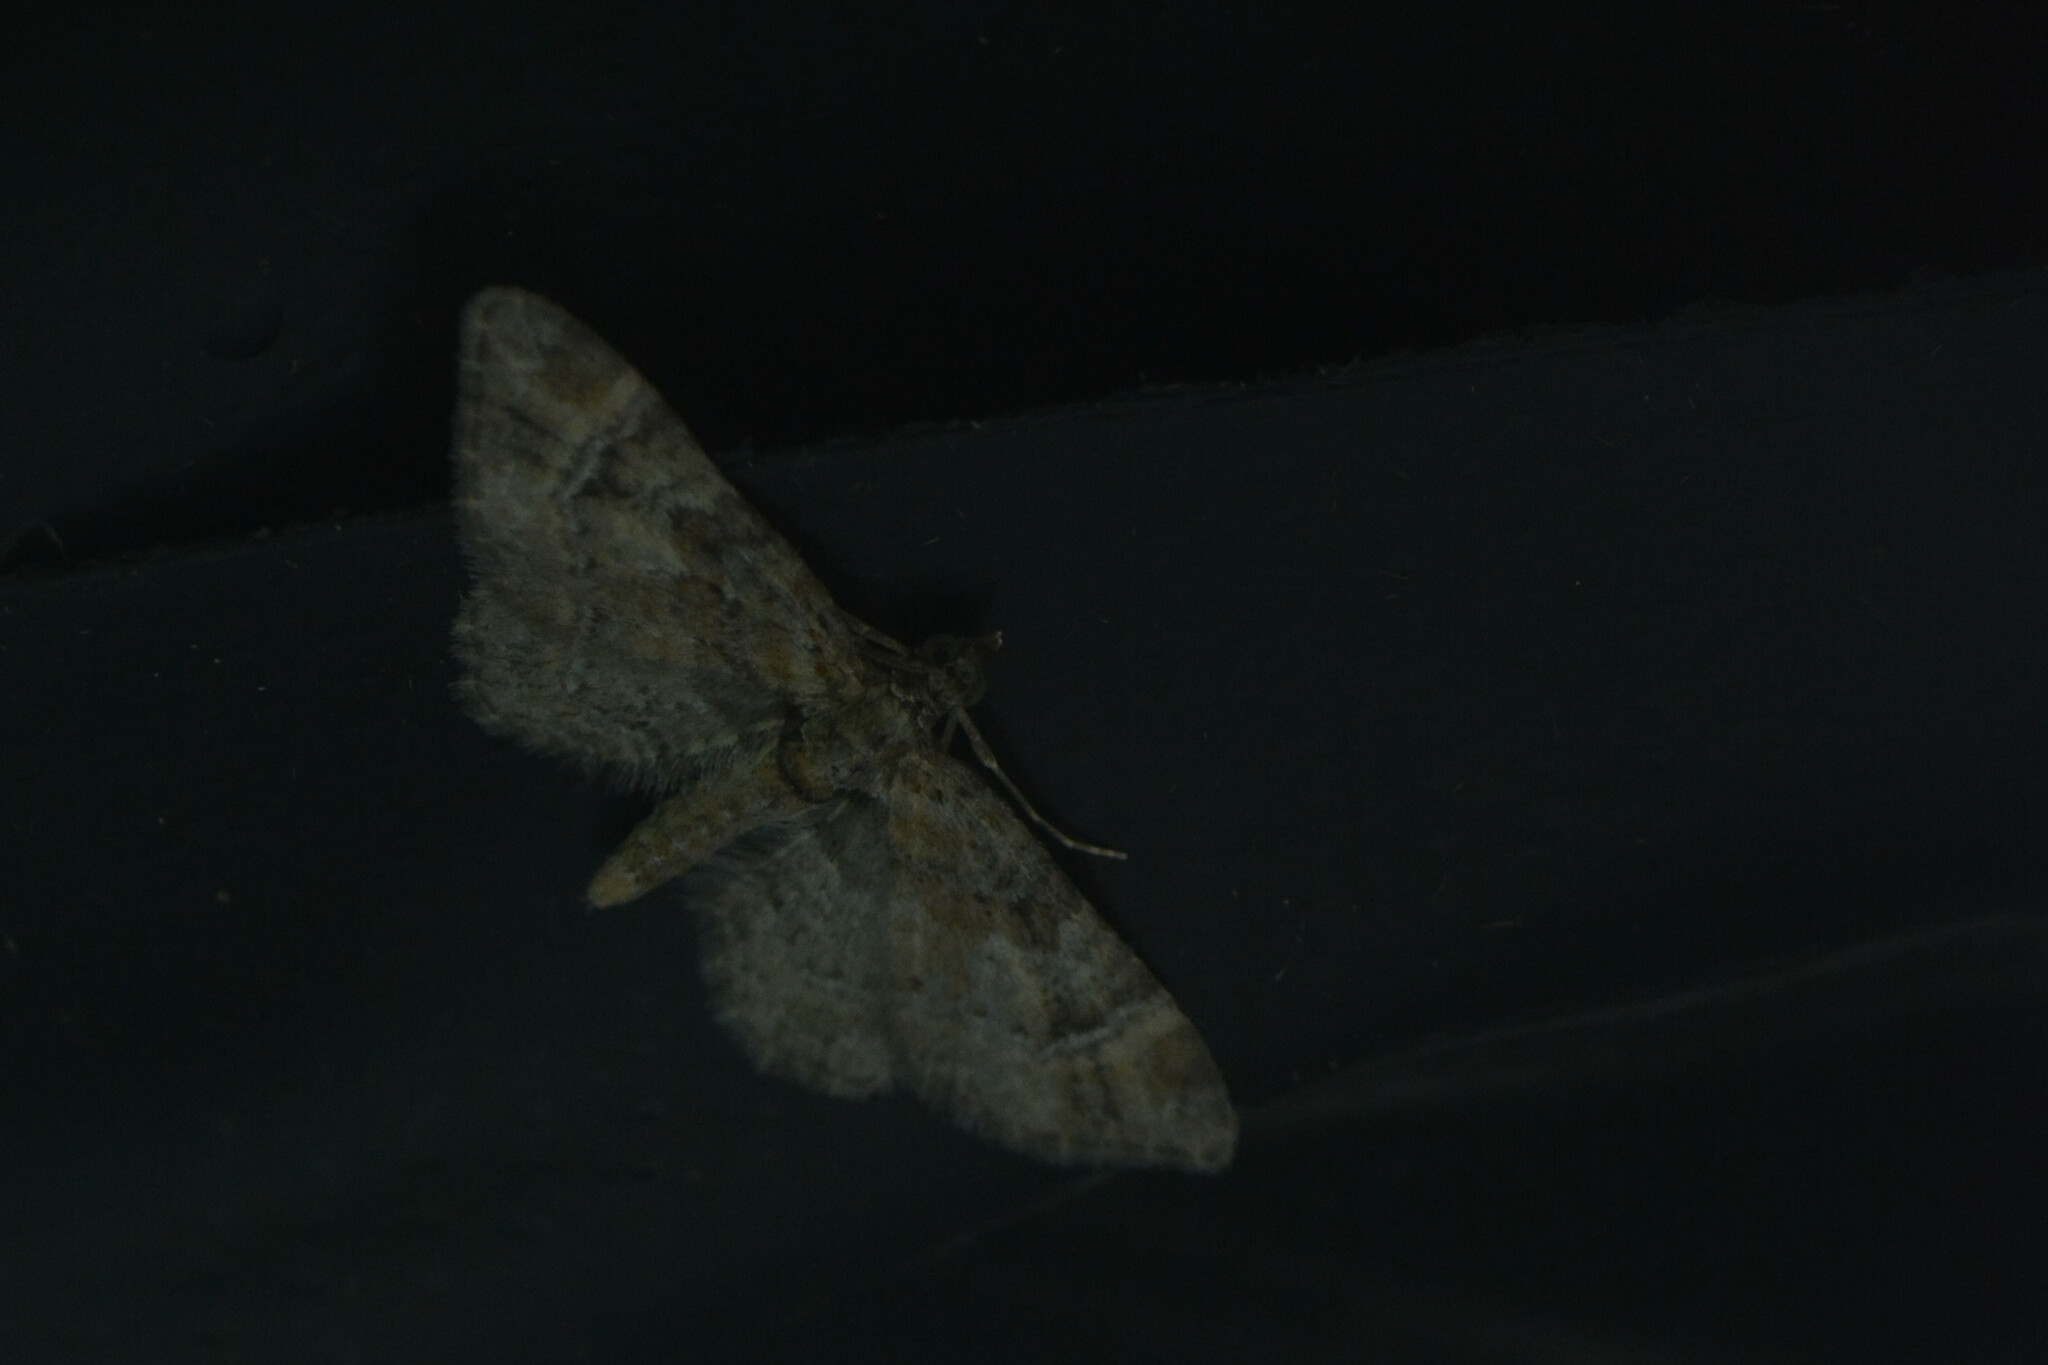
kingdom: Animalia
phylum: Arthropoda
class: Insecta
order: Lepidoptera
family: Geometridae
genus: Gymnoscelis
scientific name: Gymnoscelis rufifasciata
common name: Double-striped pug
